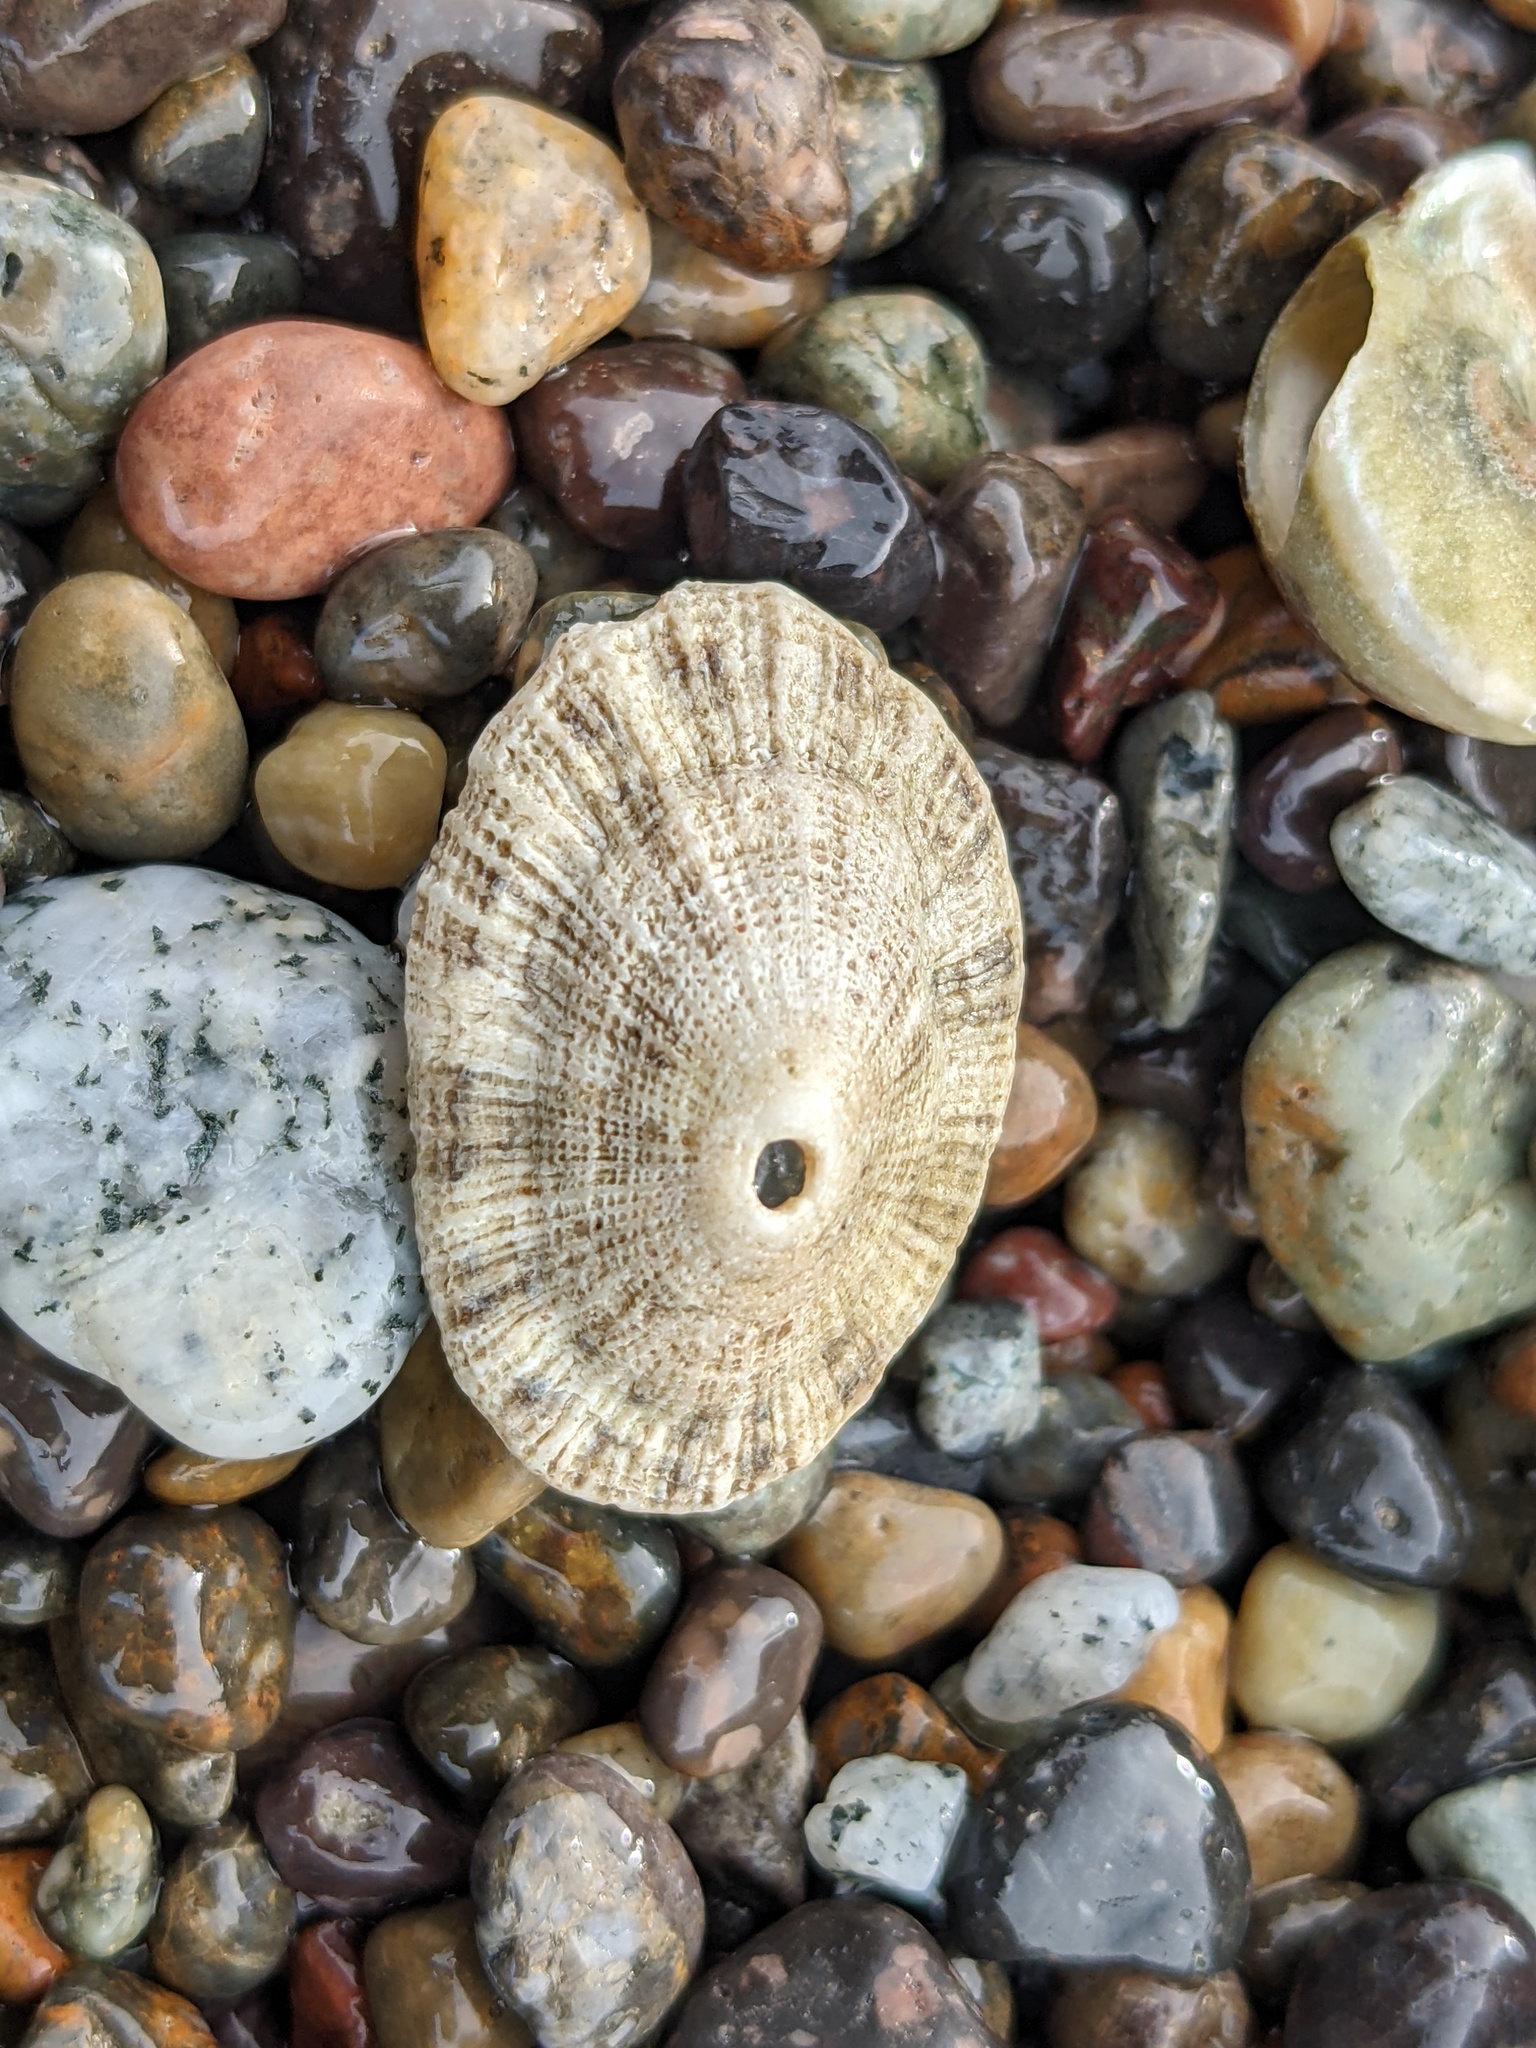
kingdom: Animalia
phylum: Mollusca
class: Gastropoda
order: Lepetellida
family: Fissurellidae
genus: Diodora
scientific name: Diodora aspera
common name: Rough keyhole limpet
